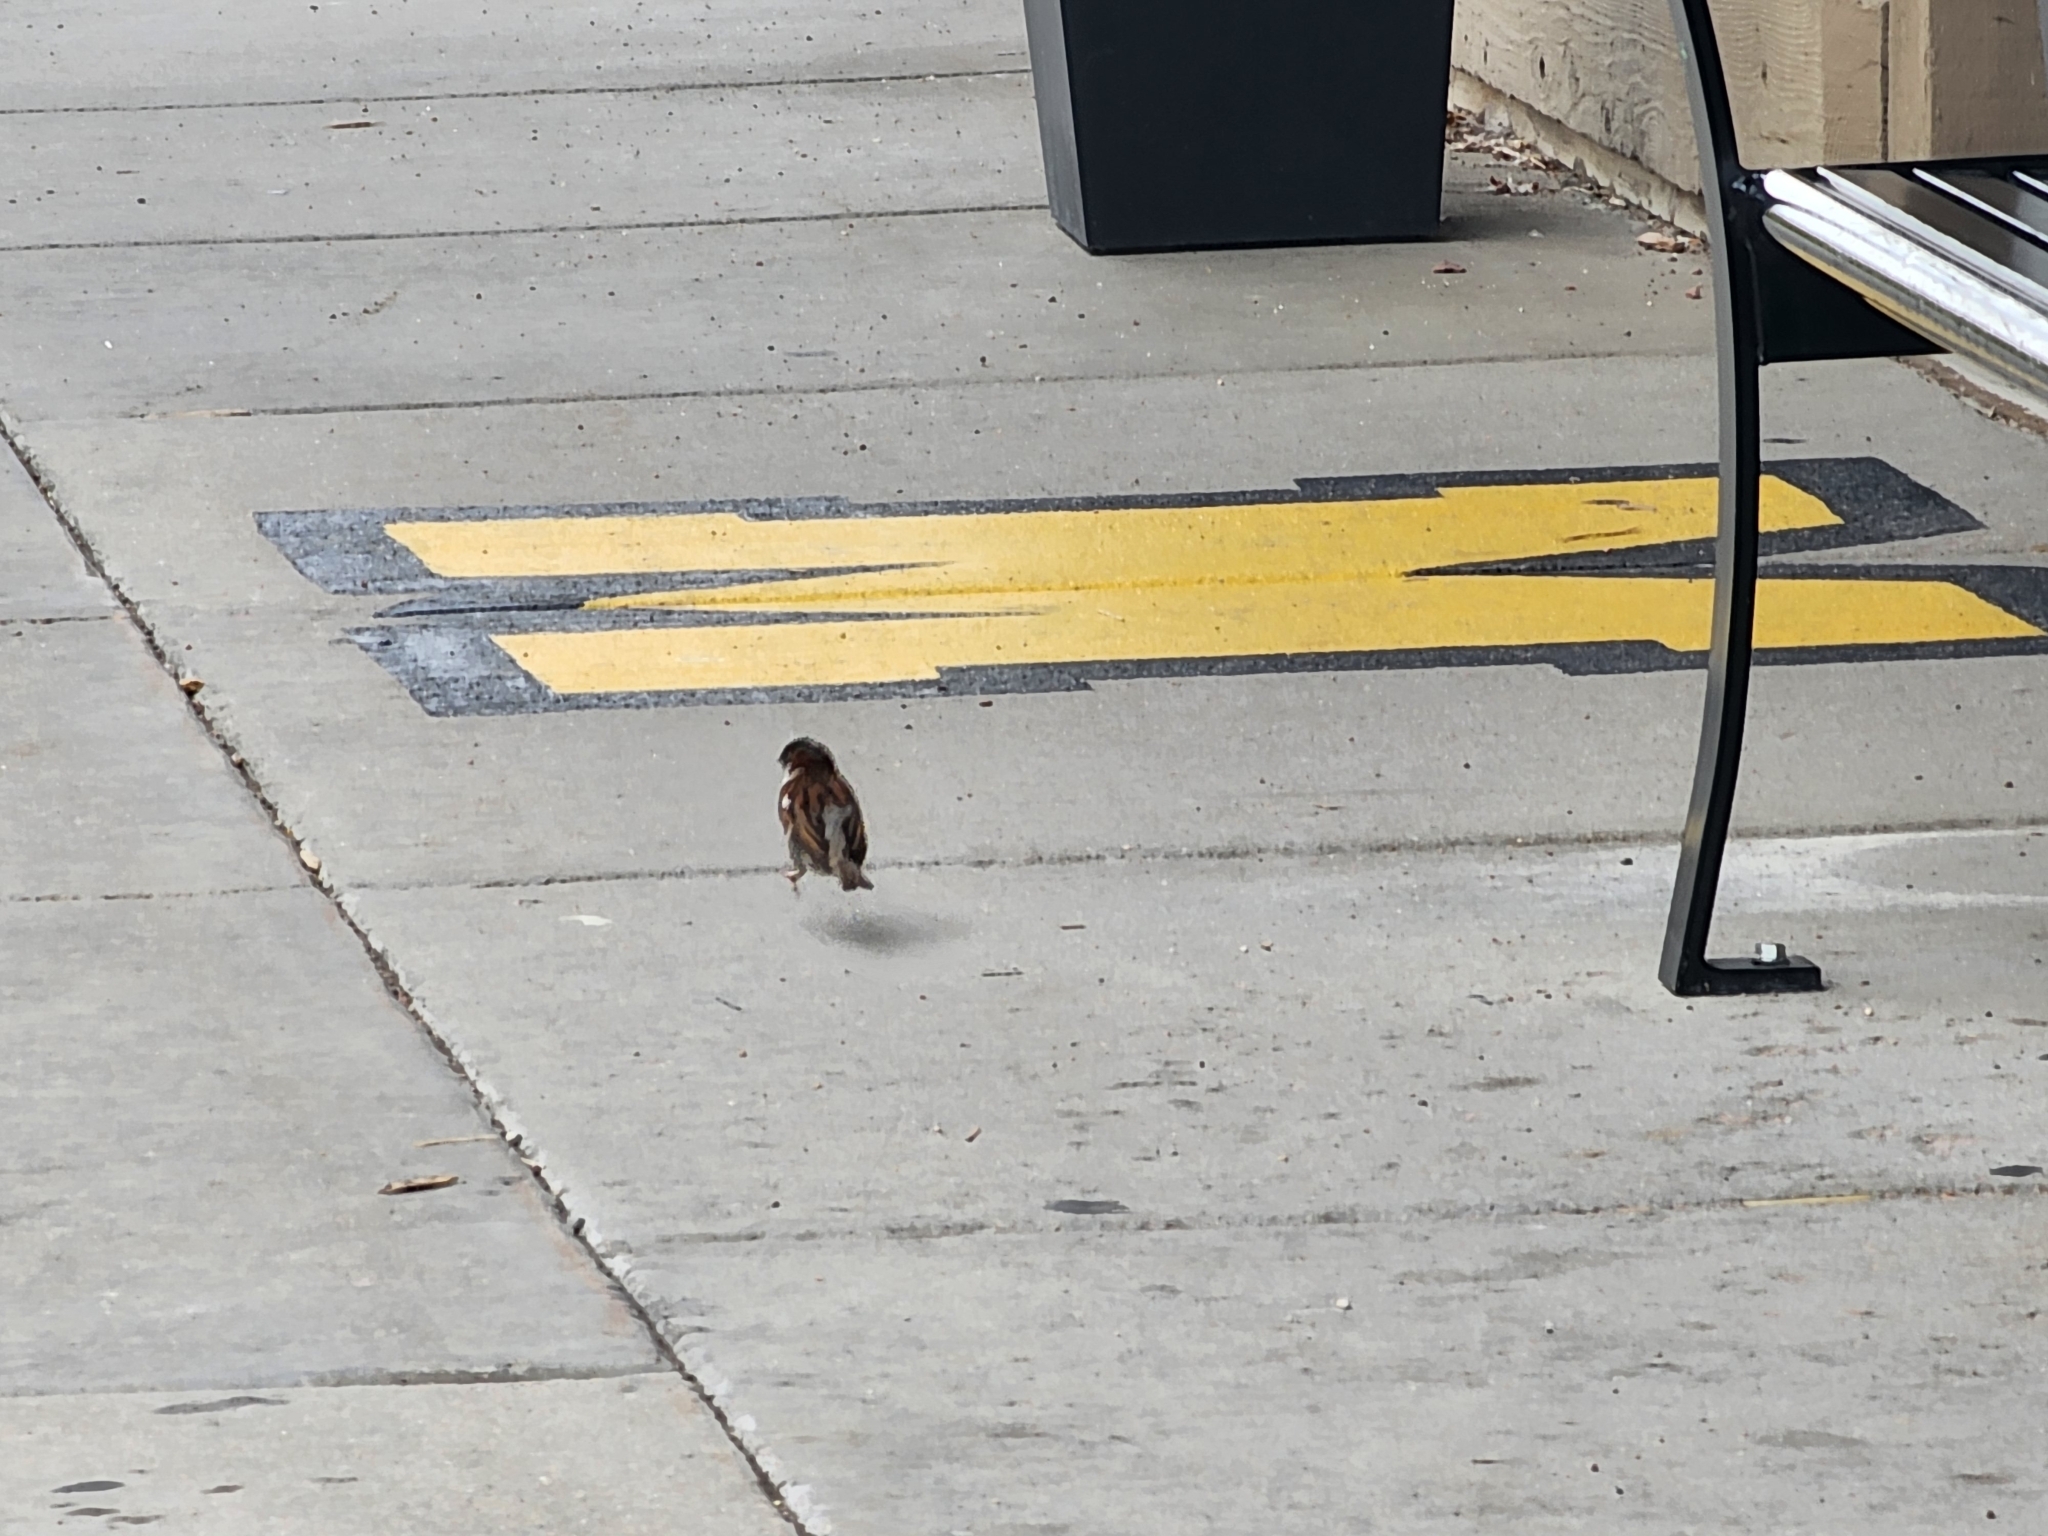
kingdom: Animalia
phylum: Chordata
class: Aves
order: Passeriformes
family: Passeridae
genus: Passer
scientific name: Passer domesticus
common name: House sparrow
